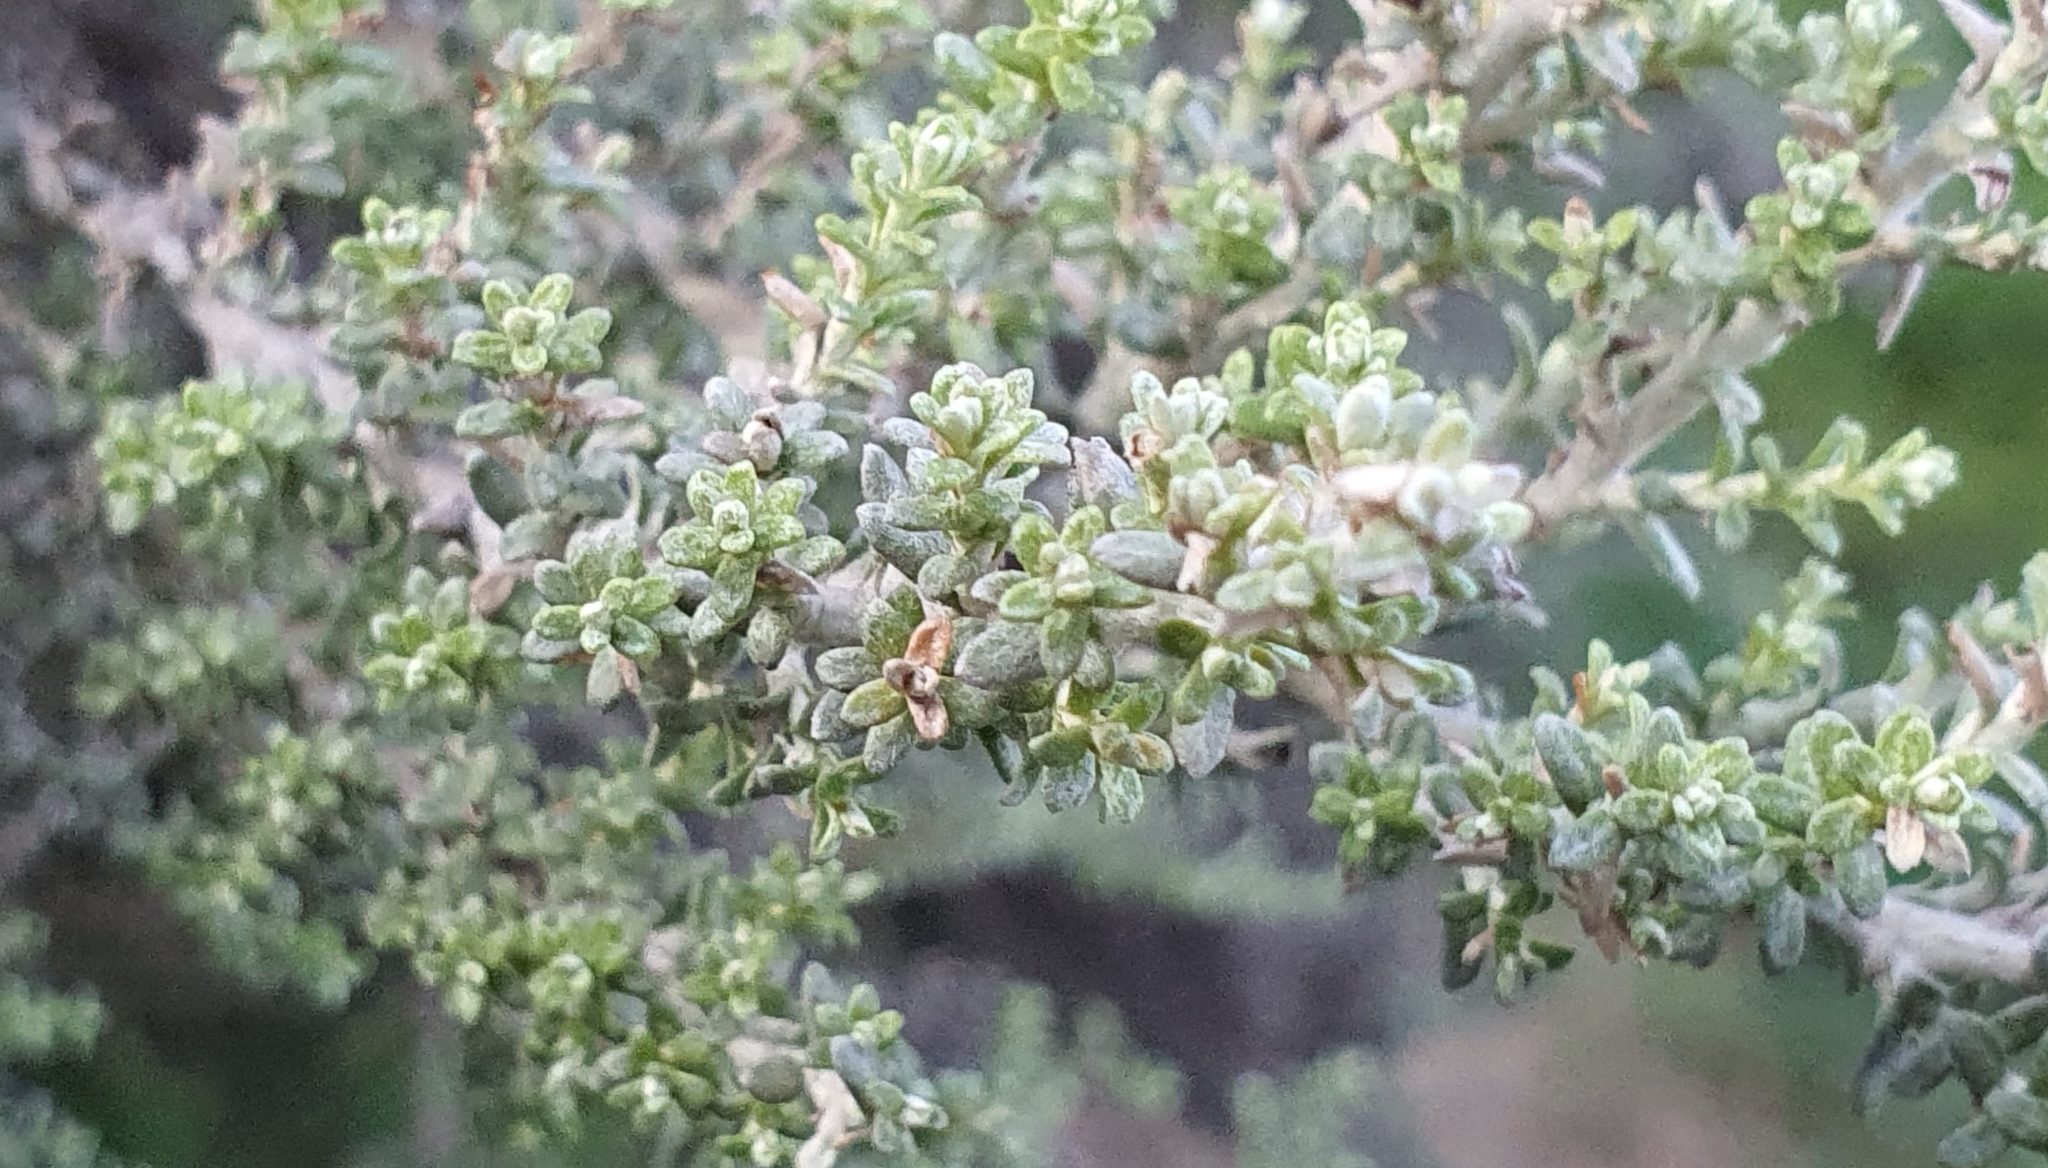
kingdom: Plantae
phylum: Tracheophyta
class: Magnoliopsida
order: Asterales
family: Asteraceae
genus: Ozothamnus
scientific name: Ozothamnus leptophyllus
